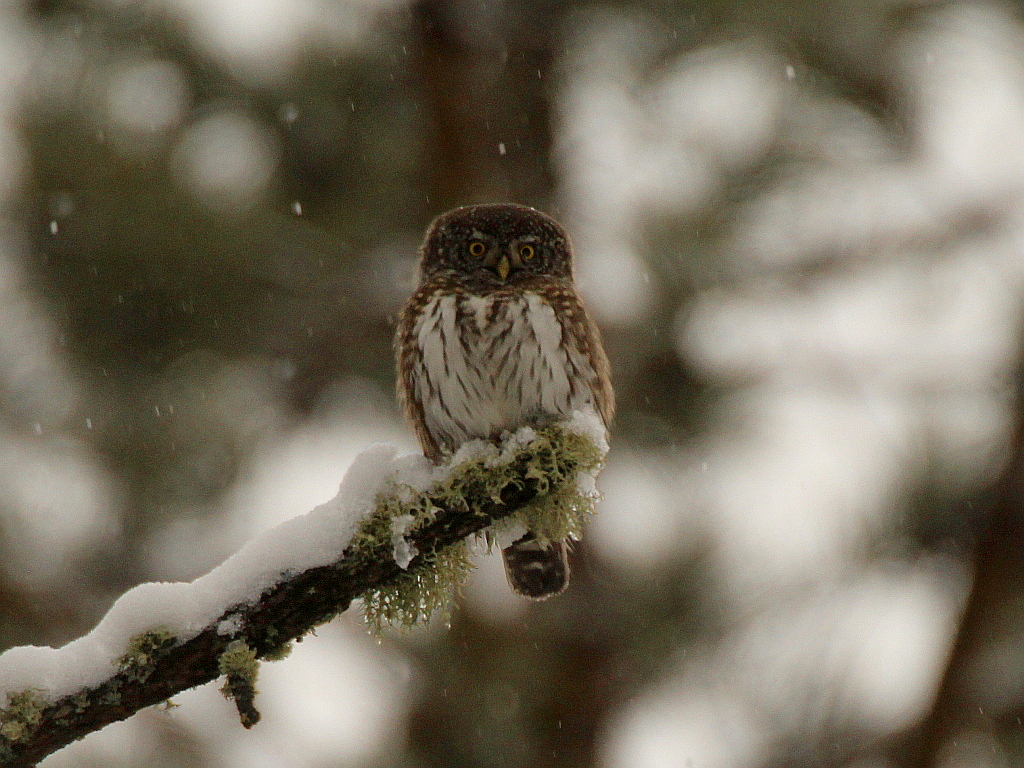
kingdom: Animalia
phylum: Chordata
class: Aves
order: Strigiformes
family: Strigidae
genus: Glaucidium
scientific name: Glaucidium passerinum
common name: Eurasian pygmy owl
